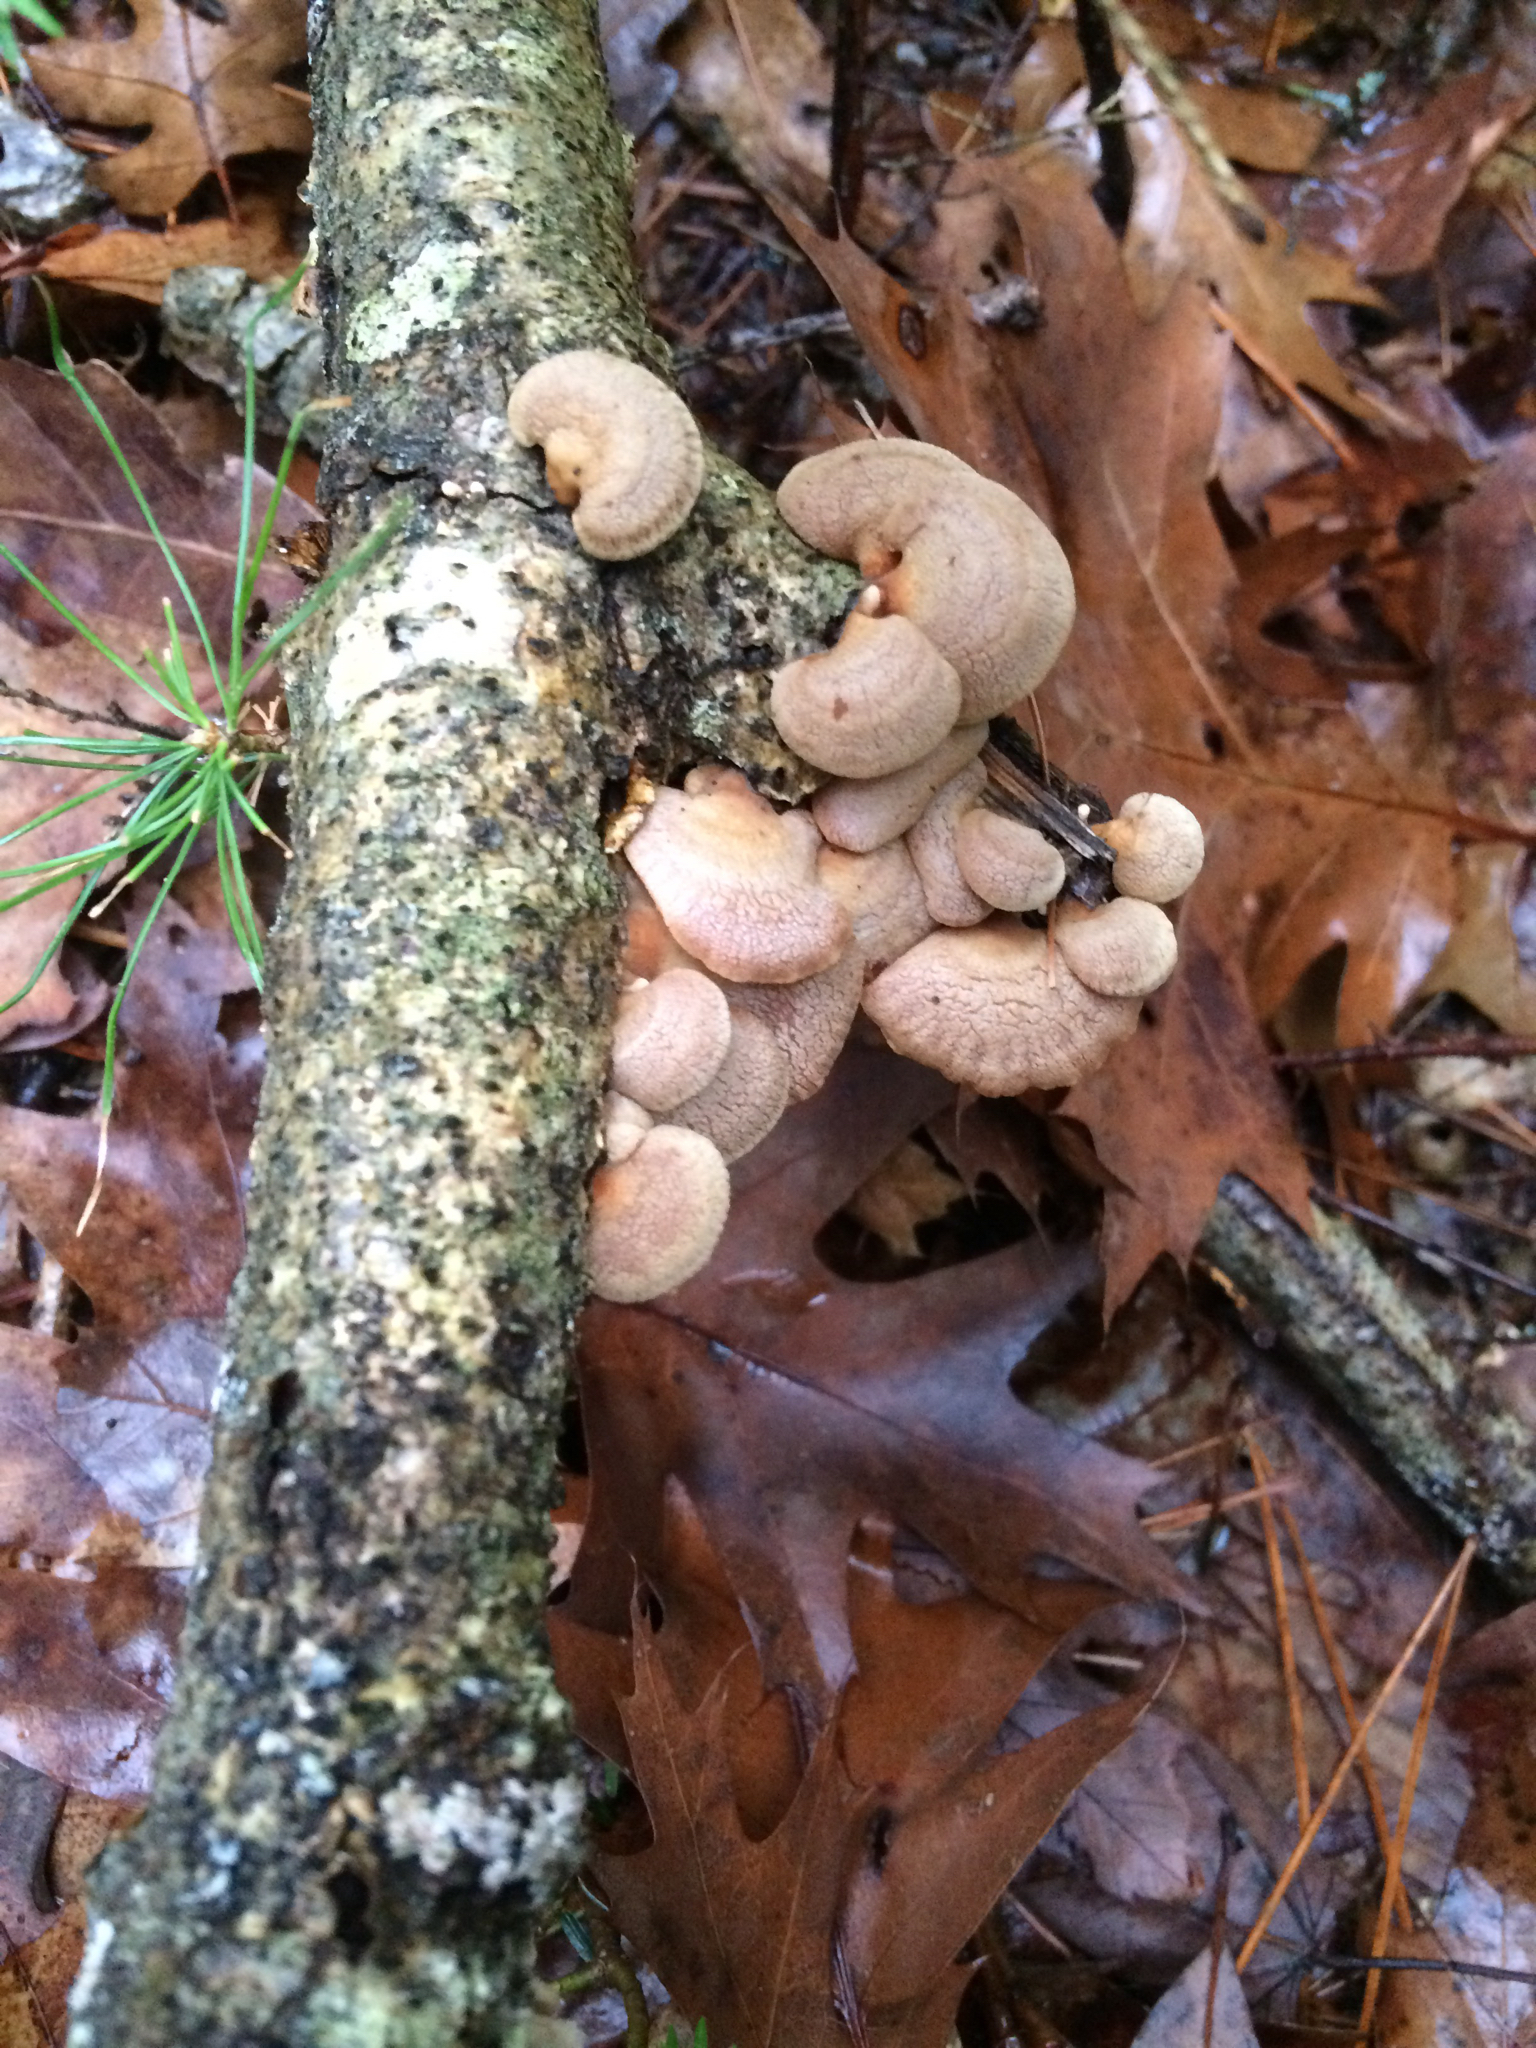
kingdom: Fungi
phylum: Basidiomycota
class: Agaricomycetes
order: Agaricales
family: Mycenaceae
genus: Panellus
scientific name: Panellus stipticus
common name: Bitter oysterling
